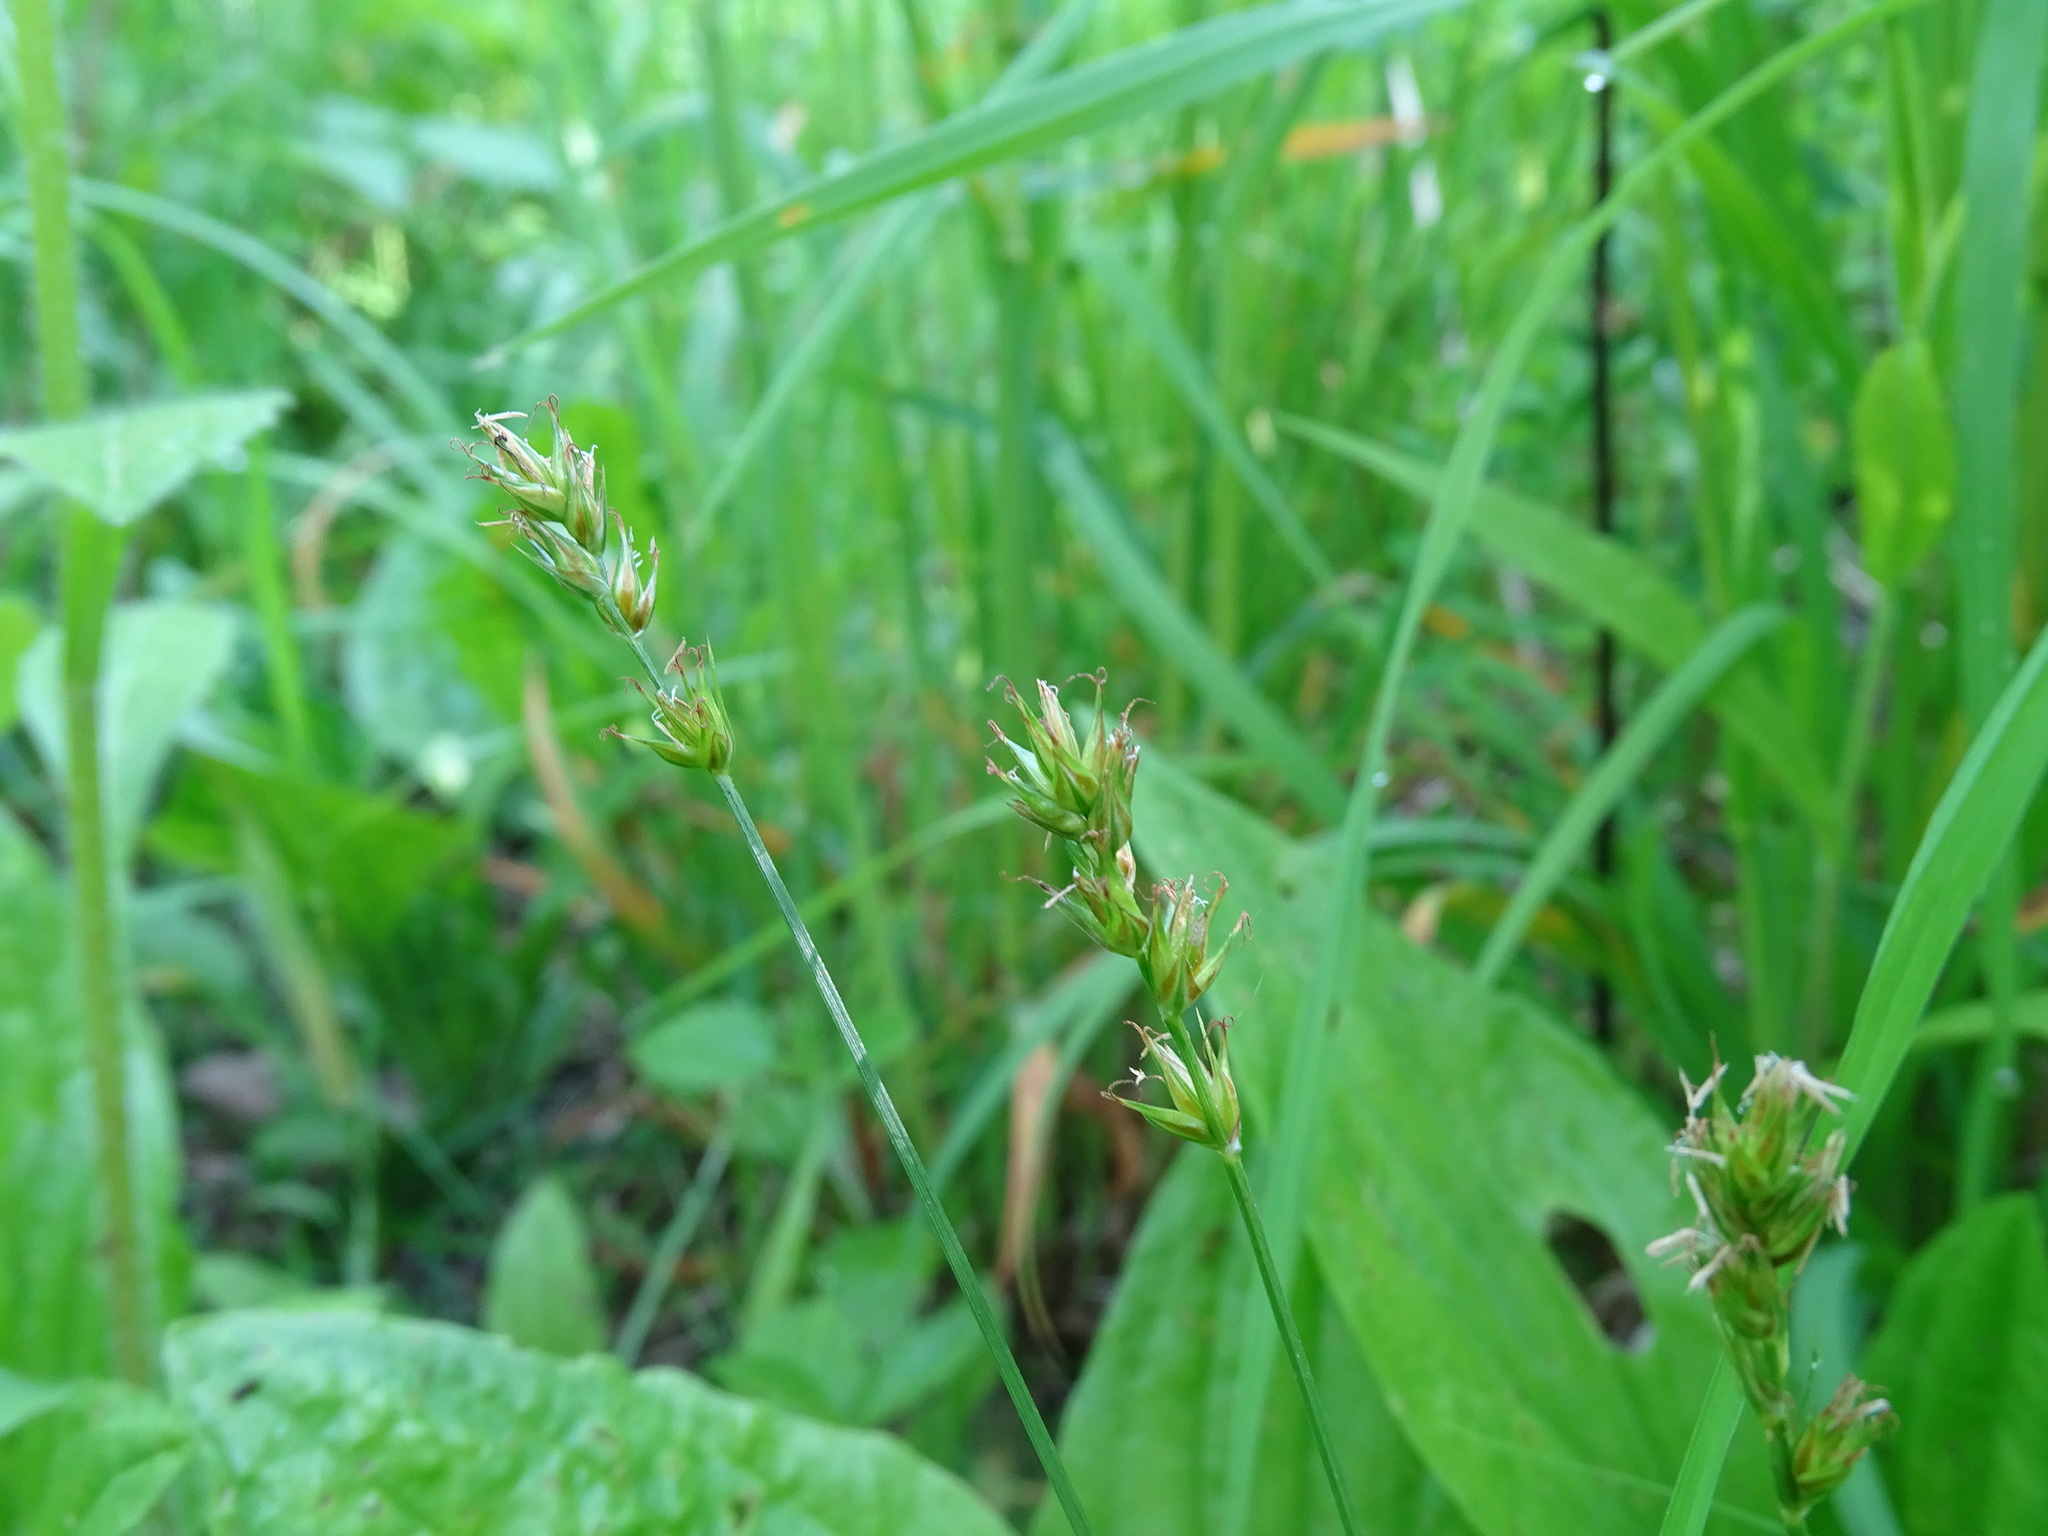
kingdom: Plantae
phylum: Tracheophyta
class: Liliopsida
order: Poales
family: Cyperaceae
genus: Carex
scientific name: Carex spicata
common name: Spiked sedge
